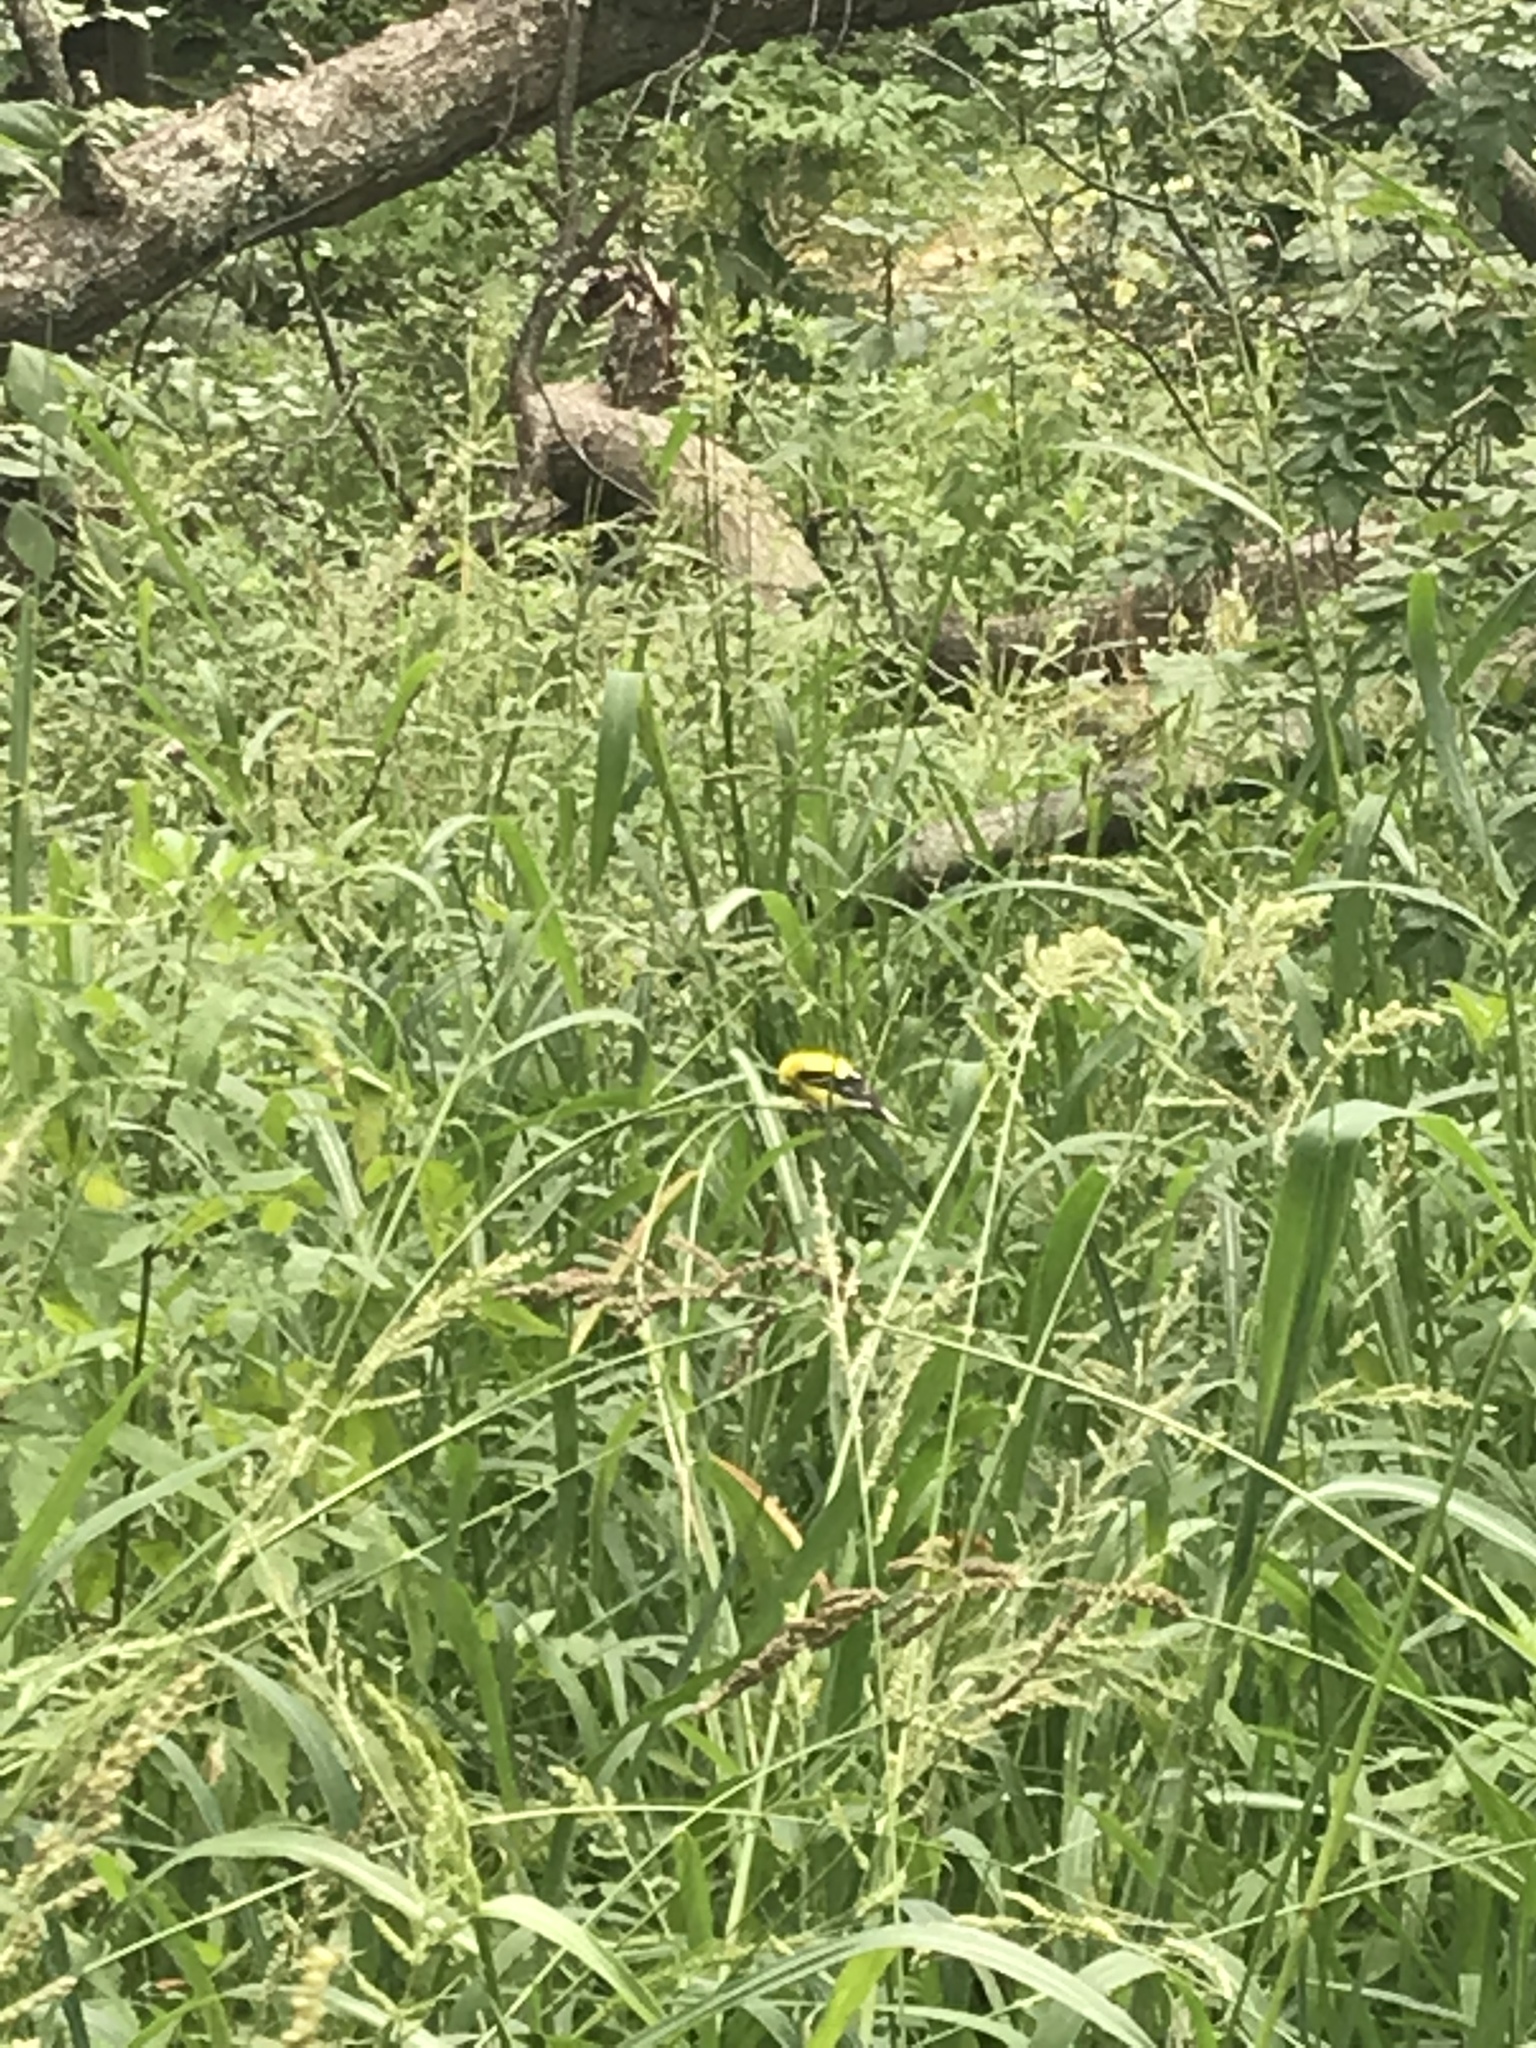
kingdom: Animalia
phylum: Chordata
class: Aves
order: Passeriformes
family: Fringillidae
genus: Spinus
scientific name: Spinus tristis
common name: American goldfinch
